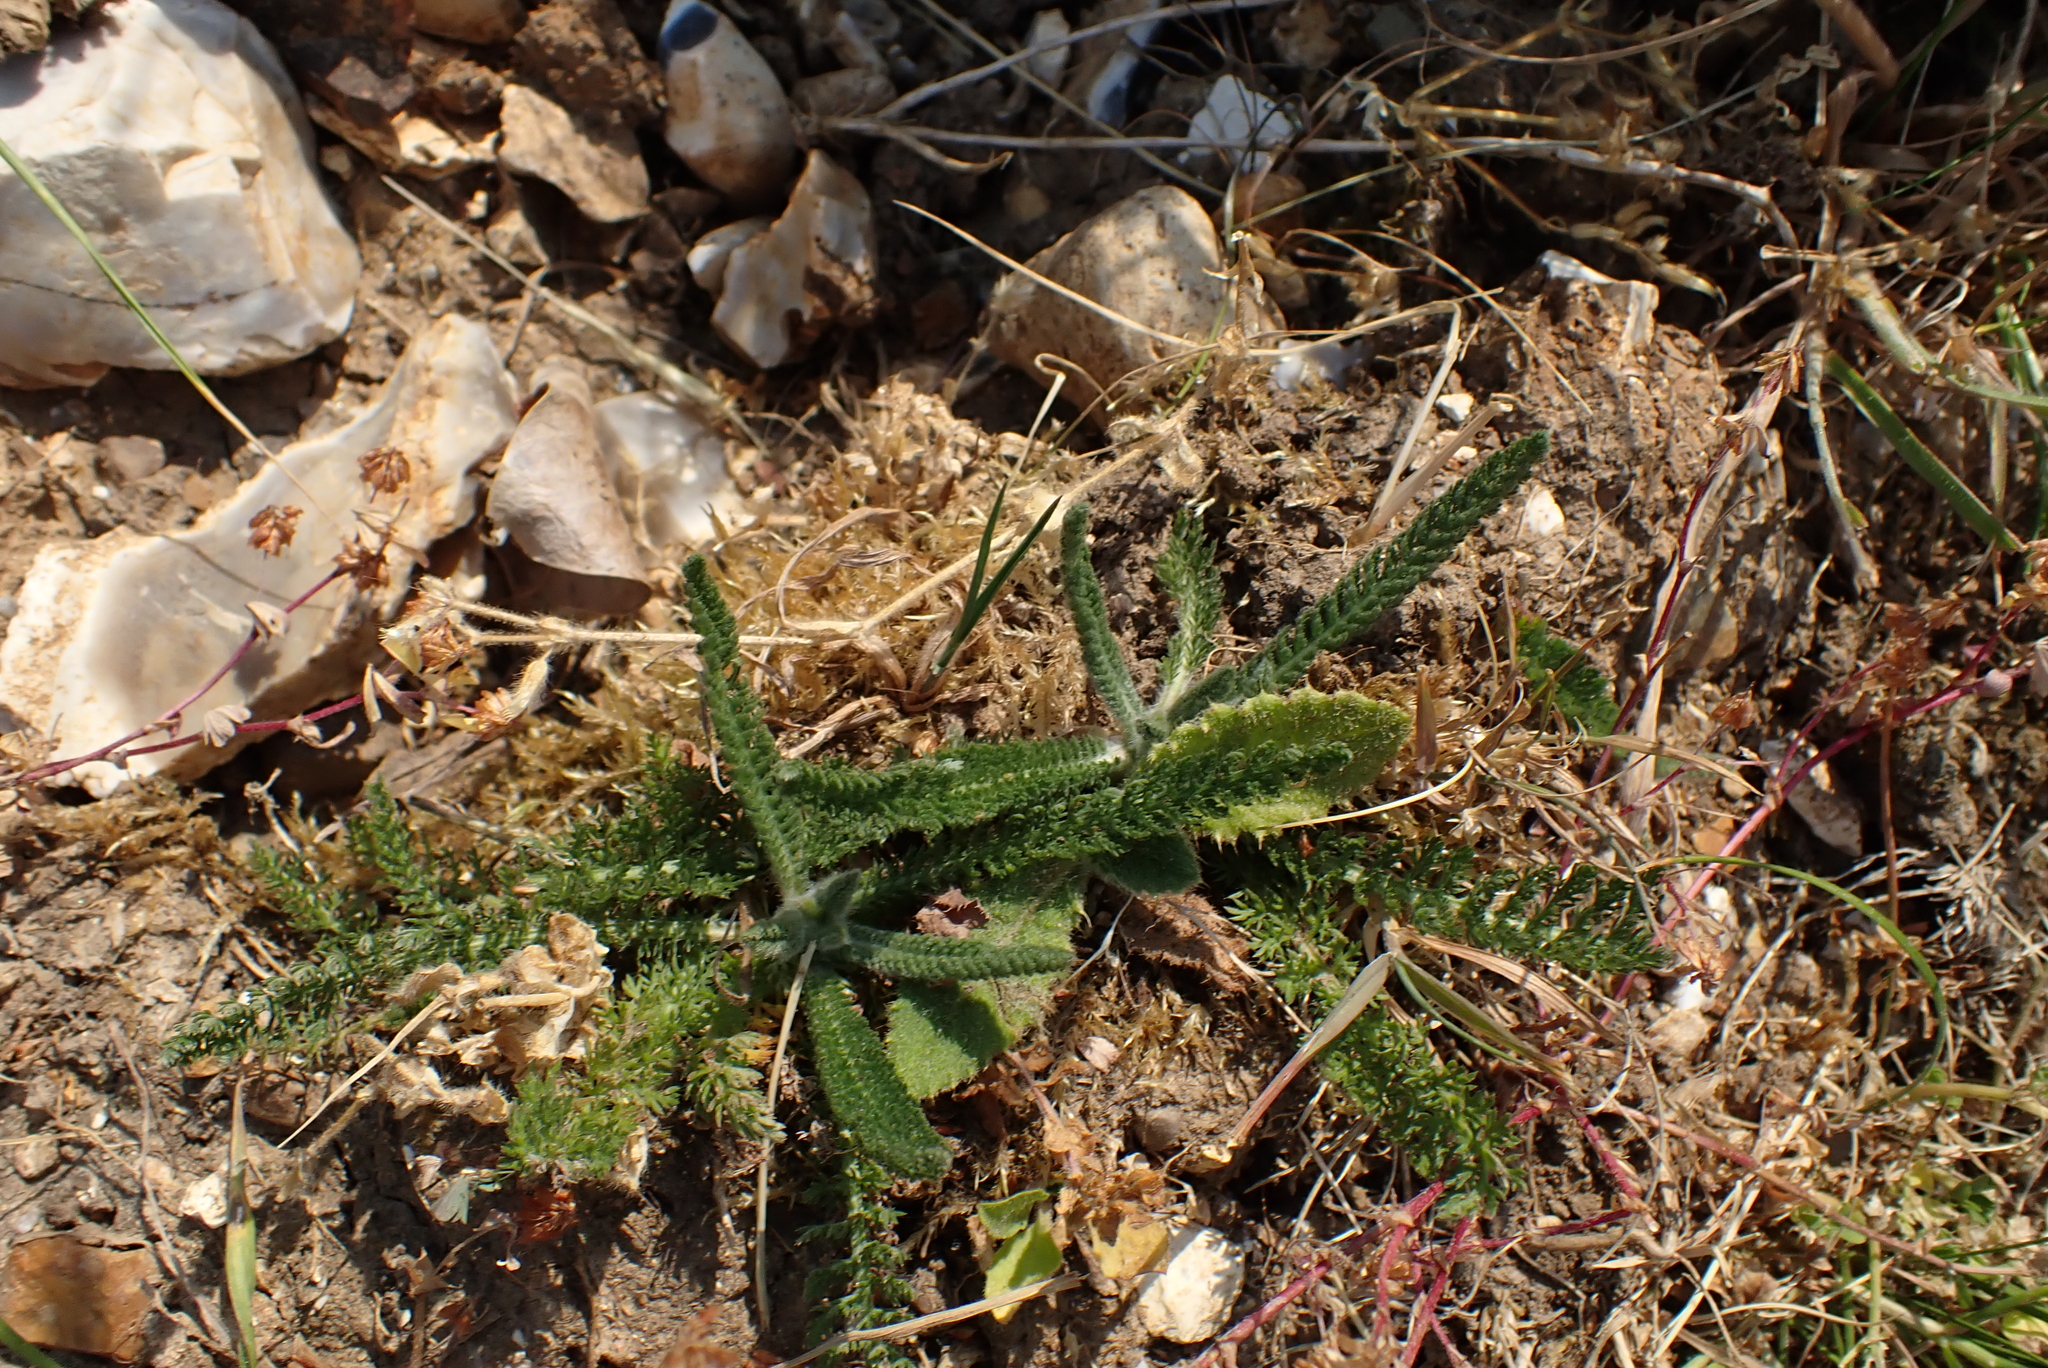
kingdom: Plantae
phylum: Tracheophyta
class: Magnoliopsida
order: Asterales
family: Asteraceae
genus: Achillea
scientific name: Achillea millefolium
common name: Yarrow
